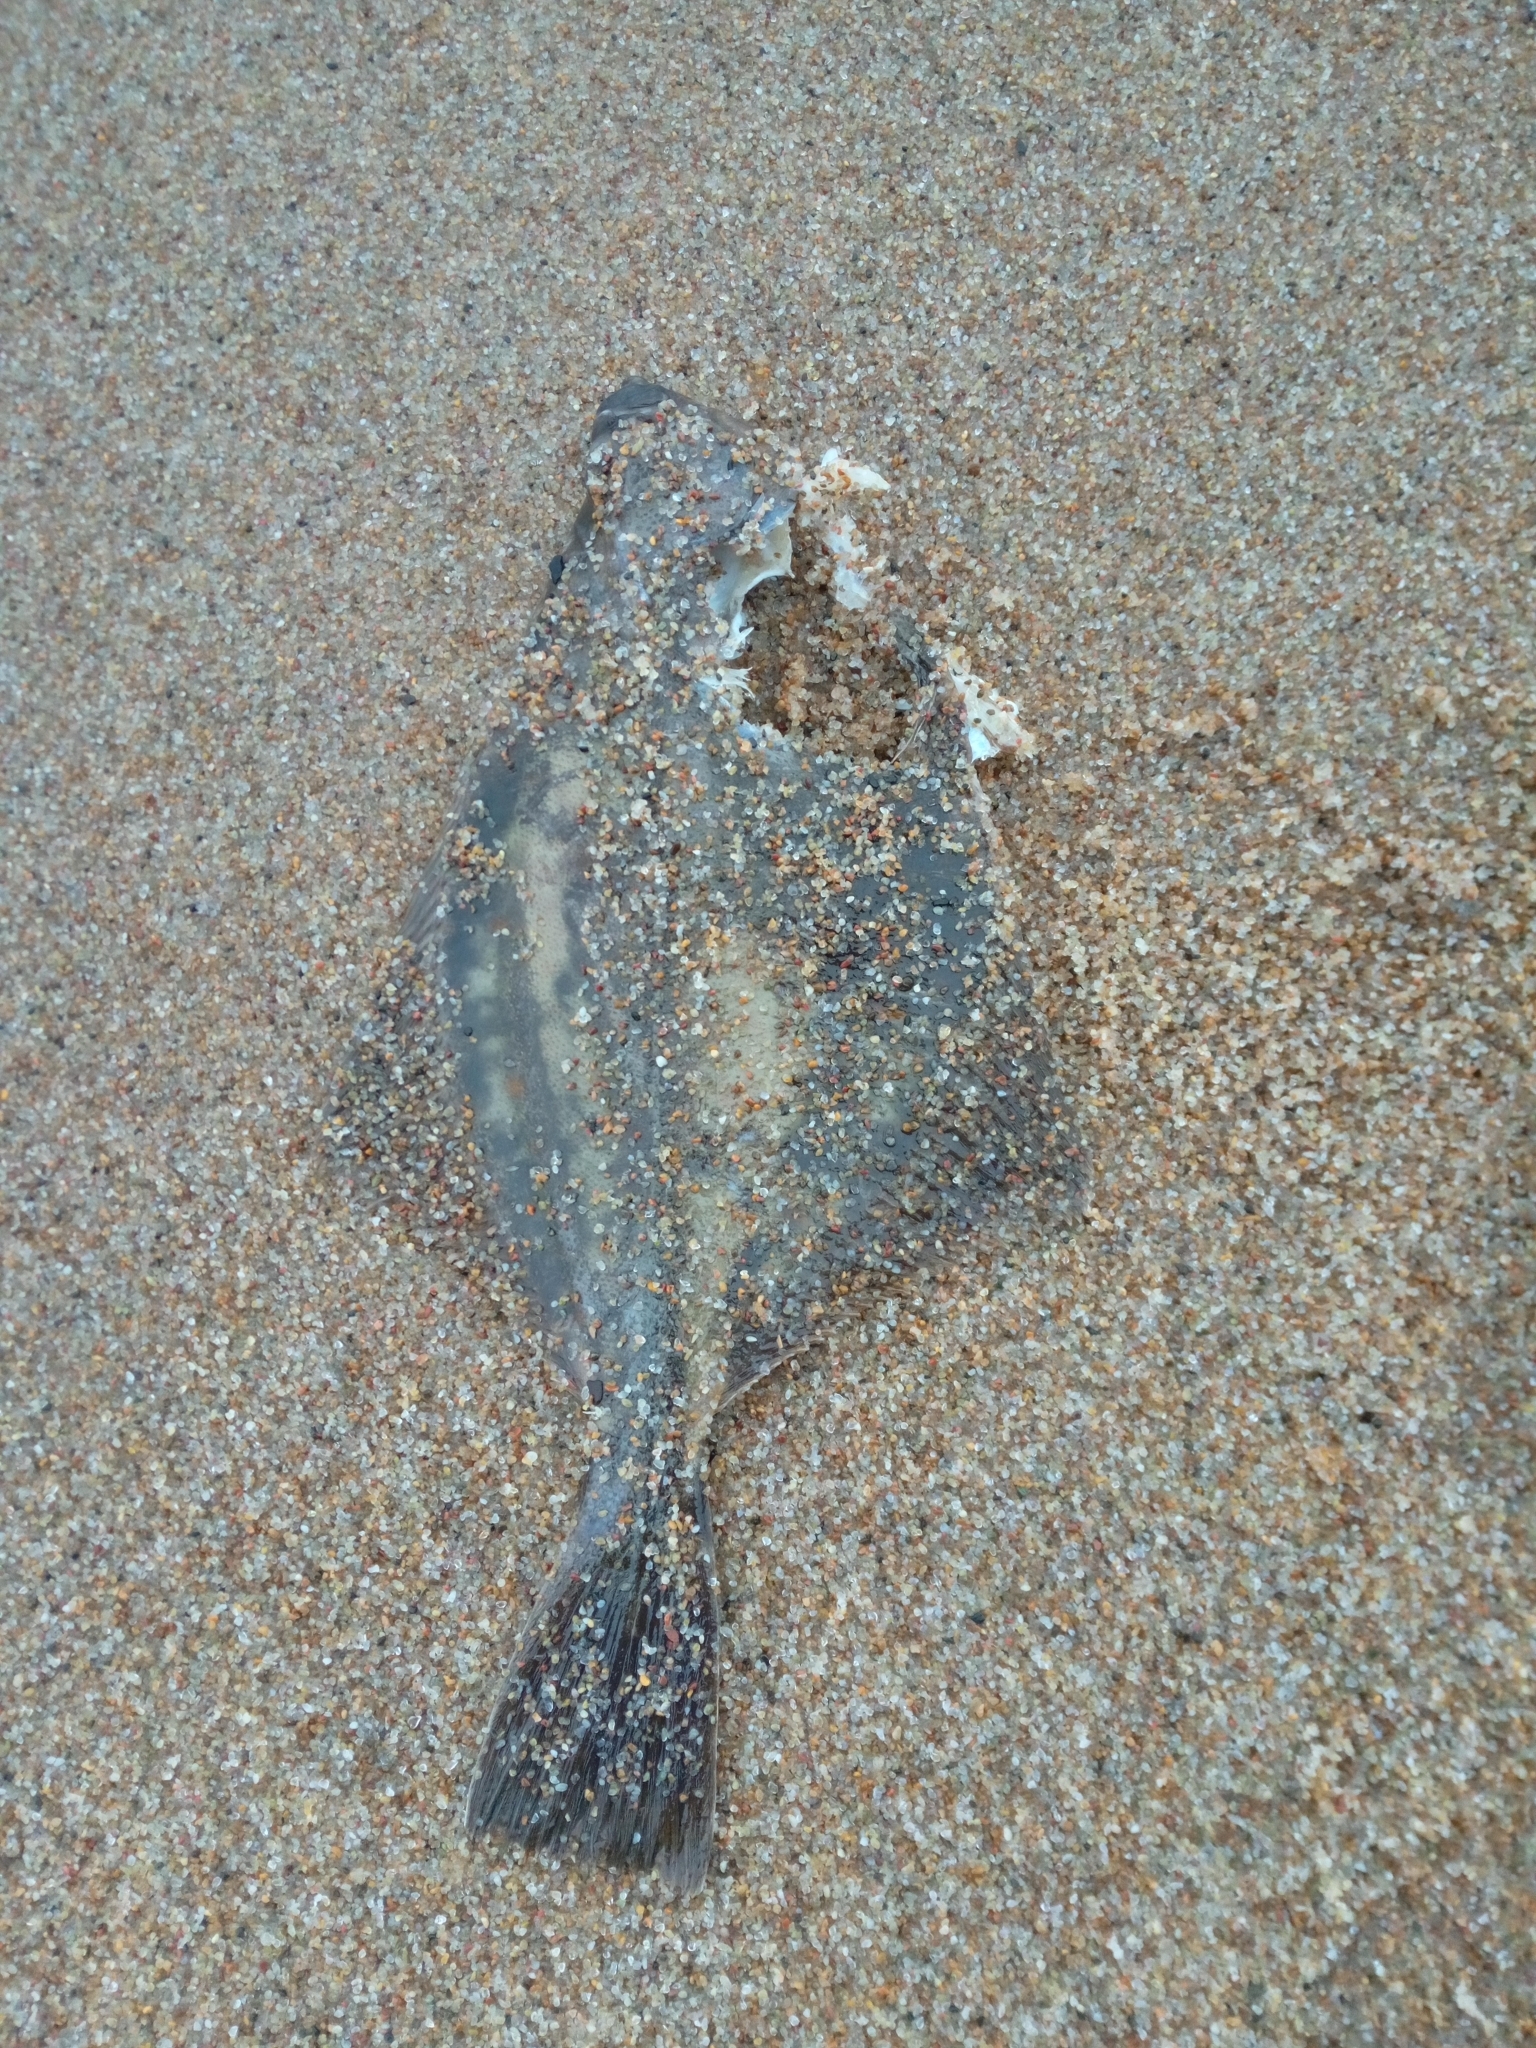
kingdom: Animalia
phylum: Chordata
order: Pleuronectiformes
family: Pleuronectidae
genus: Platichthys
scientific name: Platichthys
